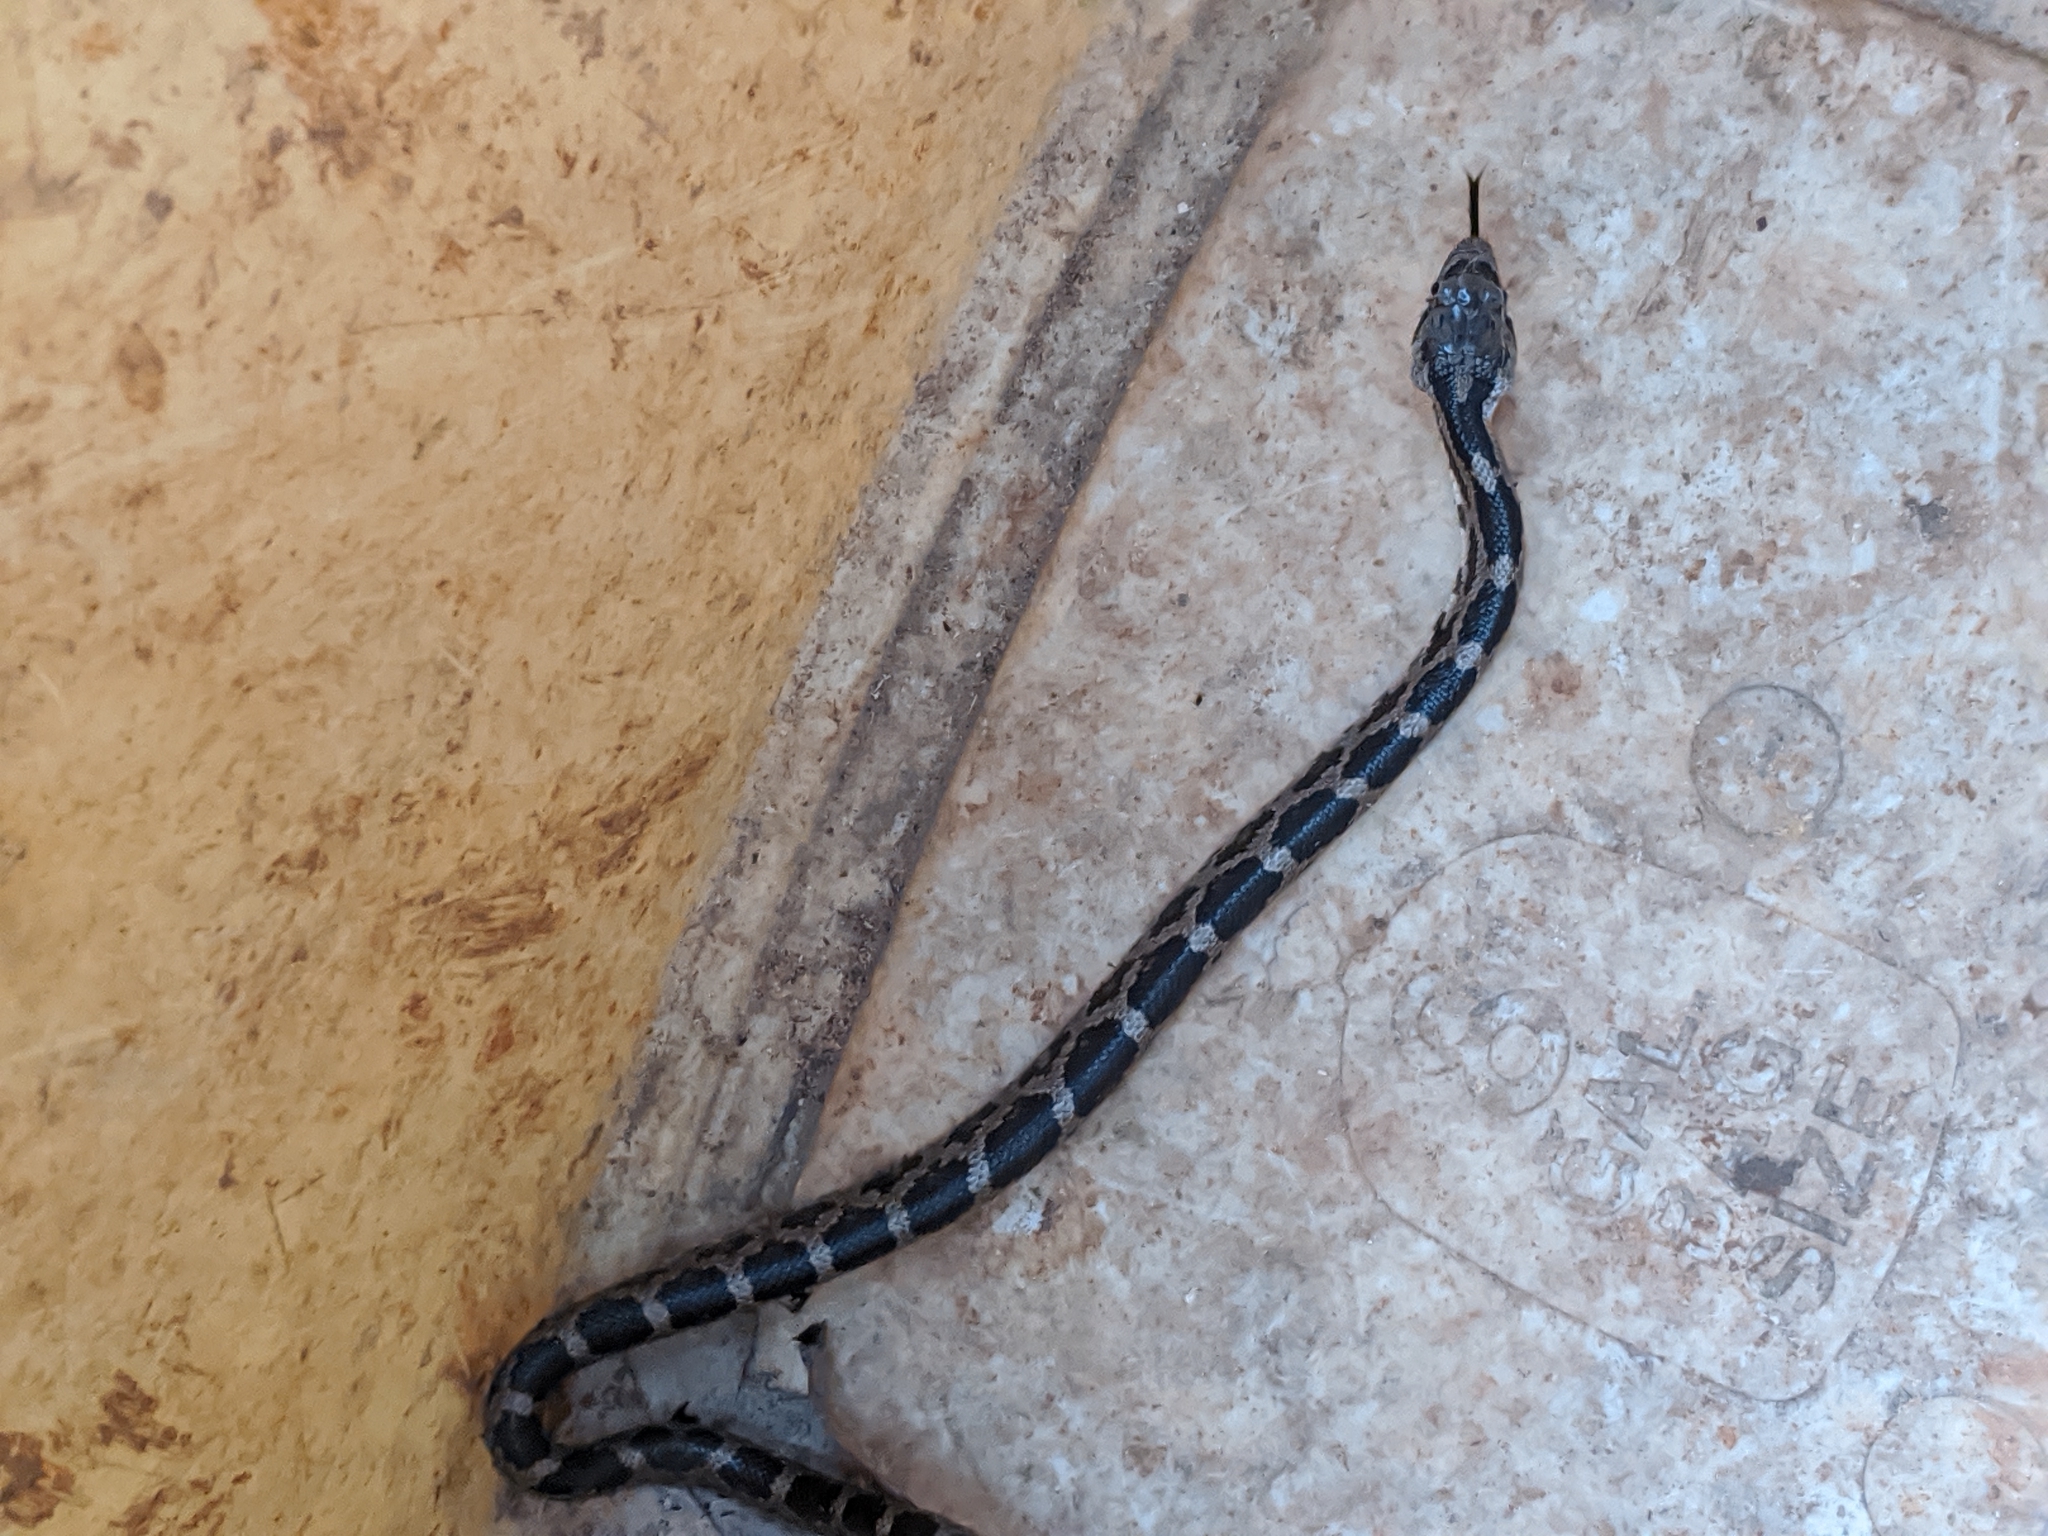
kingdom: Animalia
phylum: Chordata
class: Squamata
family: Colubridae
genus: Pantherophis
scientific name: Pantherophis alleghaniensis
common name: Eastern rat snake
